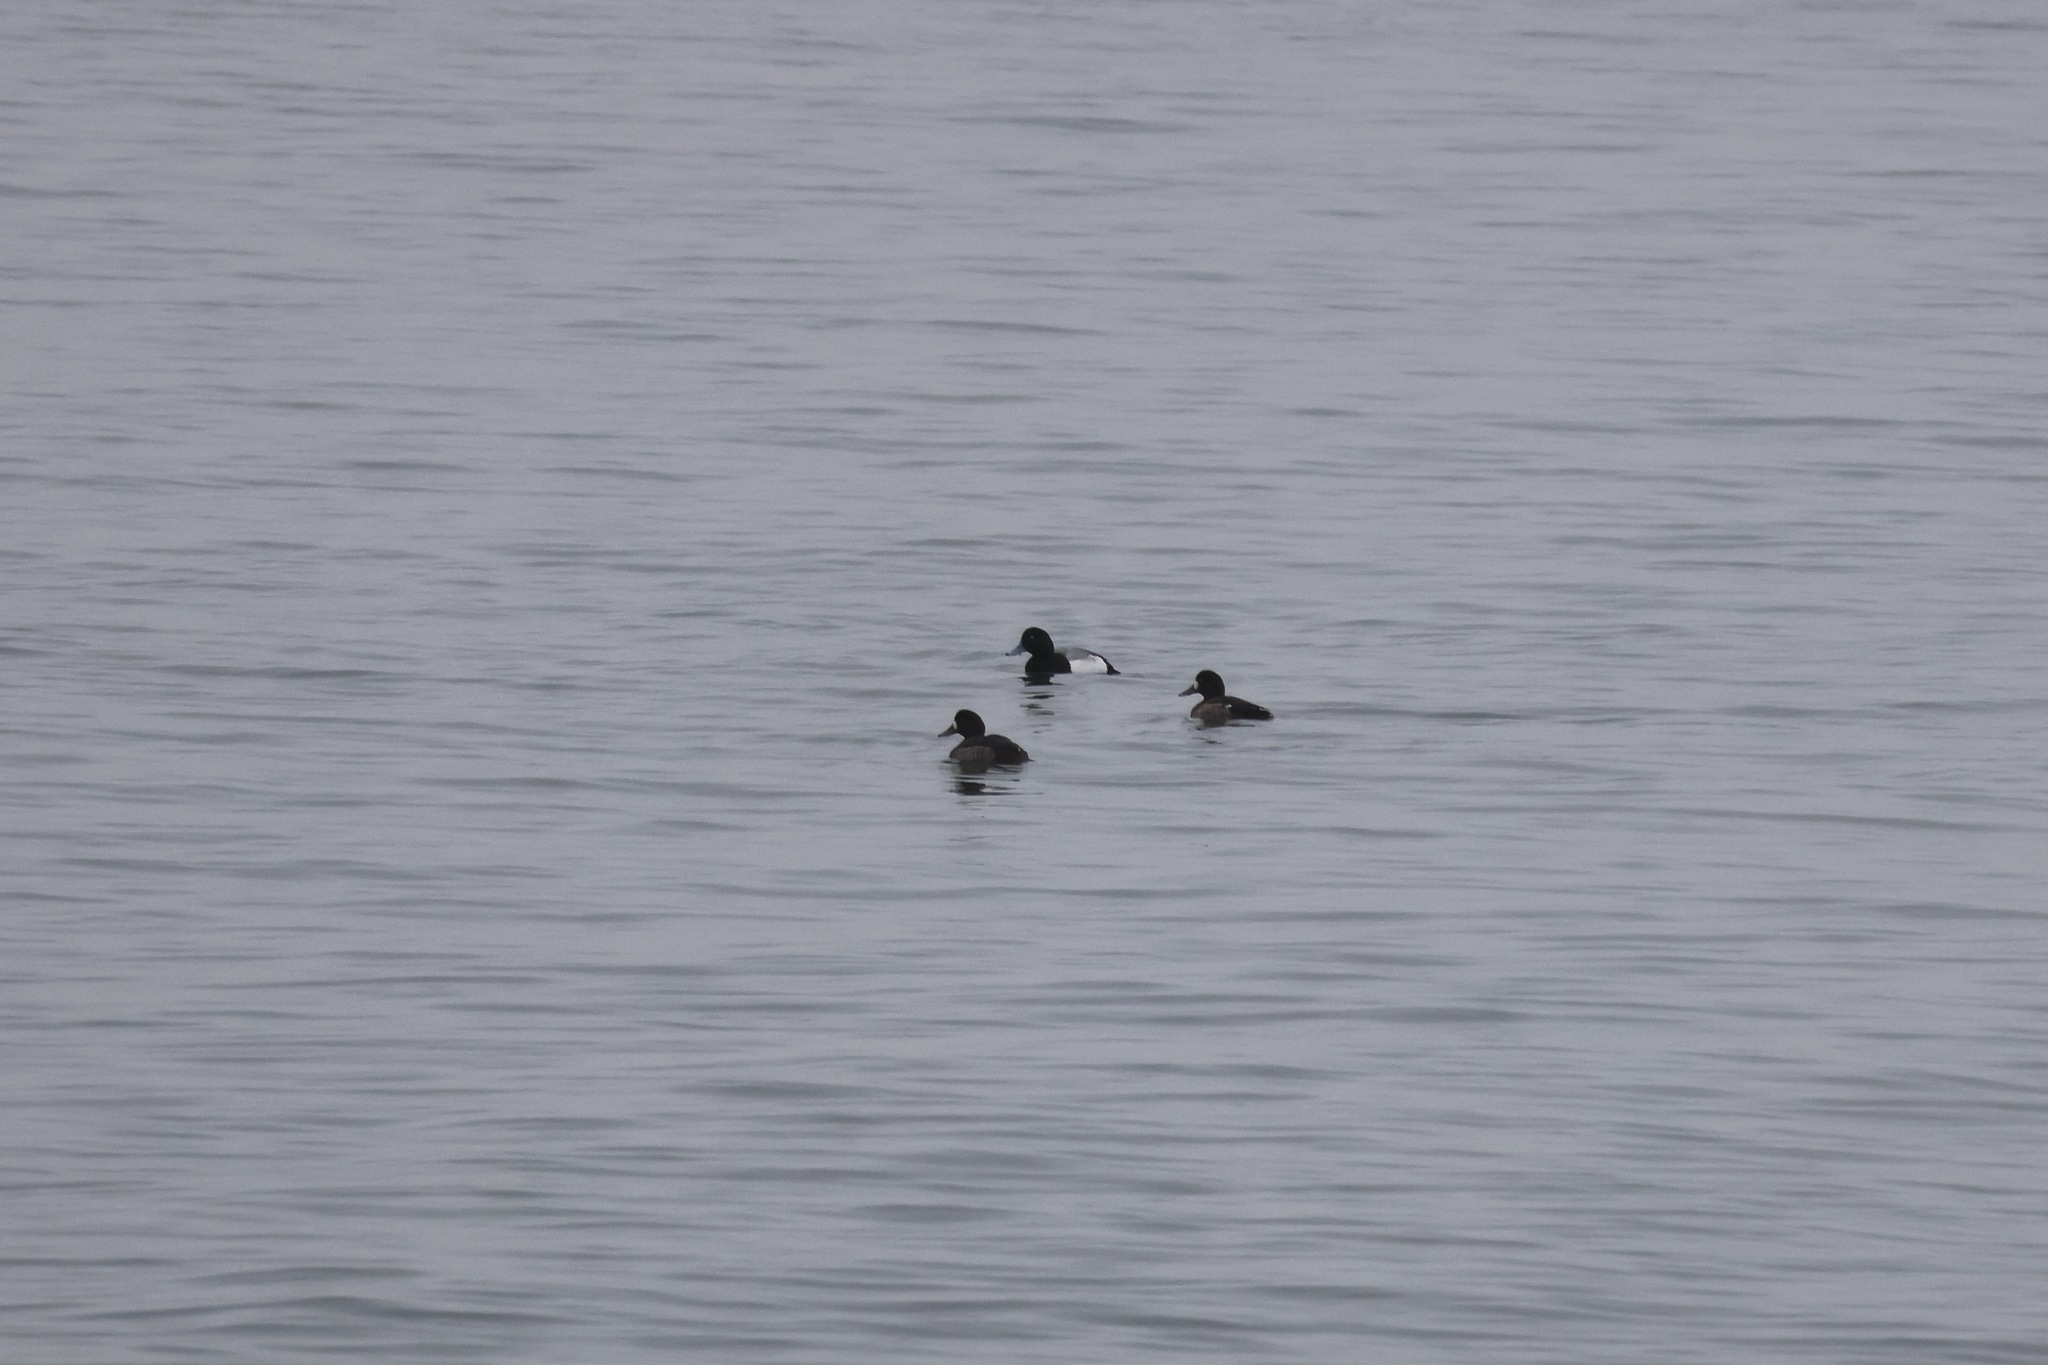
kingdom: Animalia
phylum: Chordata
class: Aves
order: Anseriformes
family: Anatidae
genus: Aythya
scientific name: Aythya marila
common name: Greater scaup
